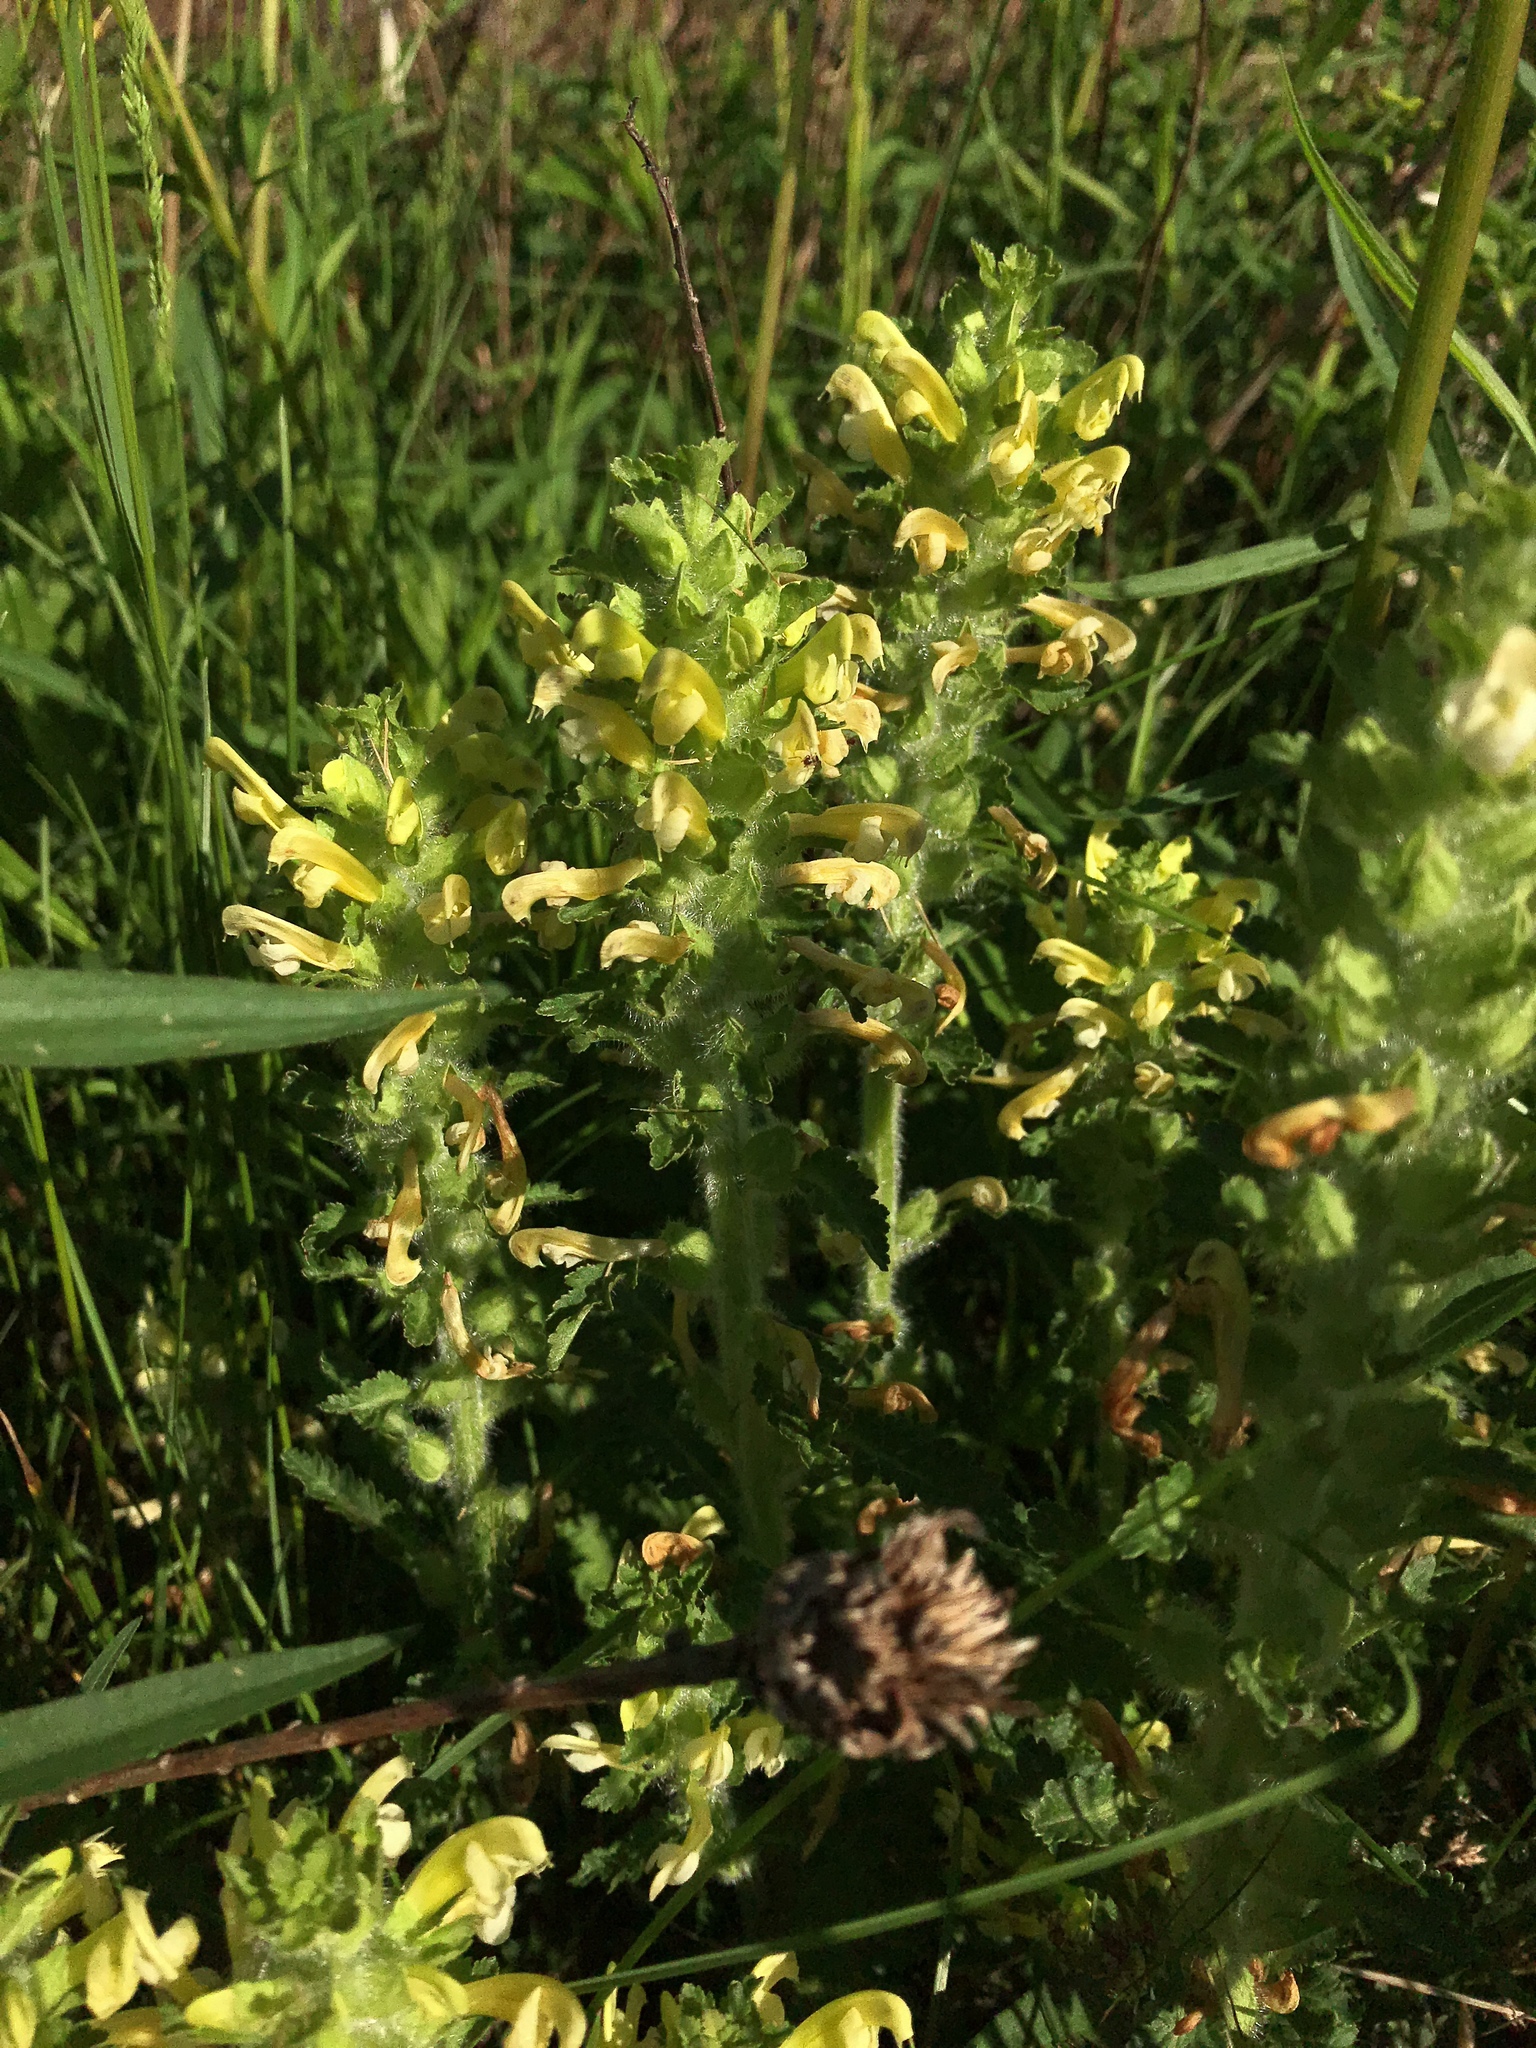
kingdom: Plantae
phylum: Tracheophyta
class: Magnoliopsida
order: Lamiales
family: Orobanchaceae
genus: Pedicularis
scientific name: Pedicularis canadensis
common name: Early lousewort
